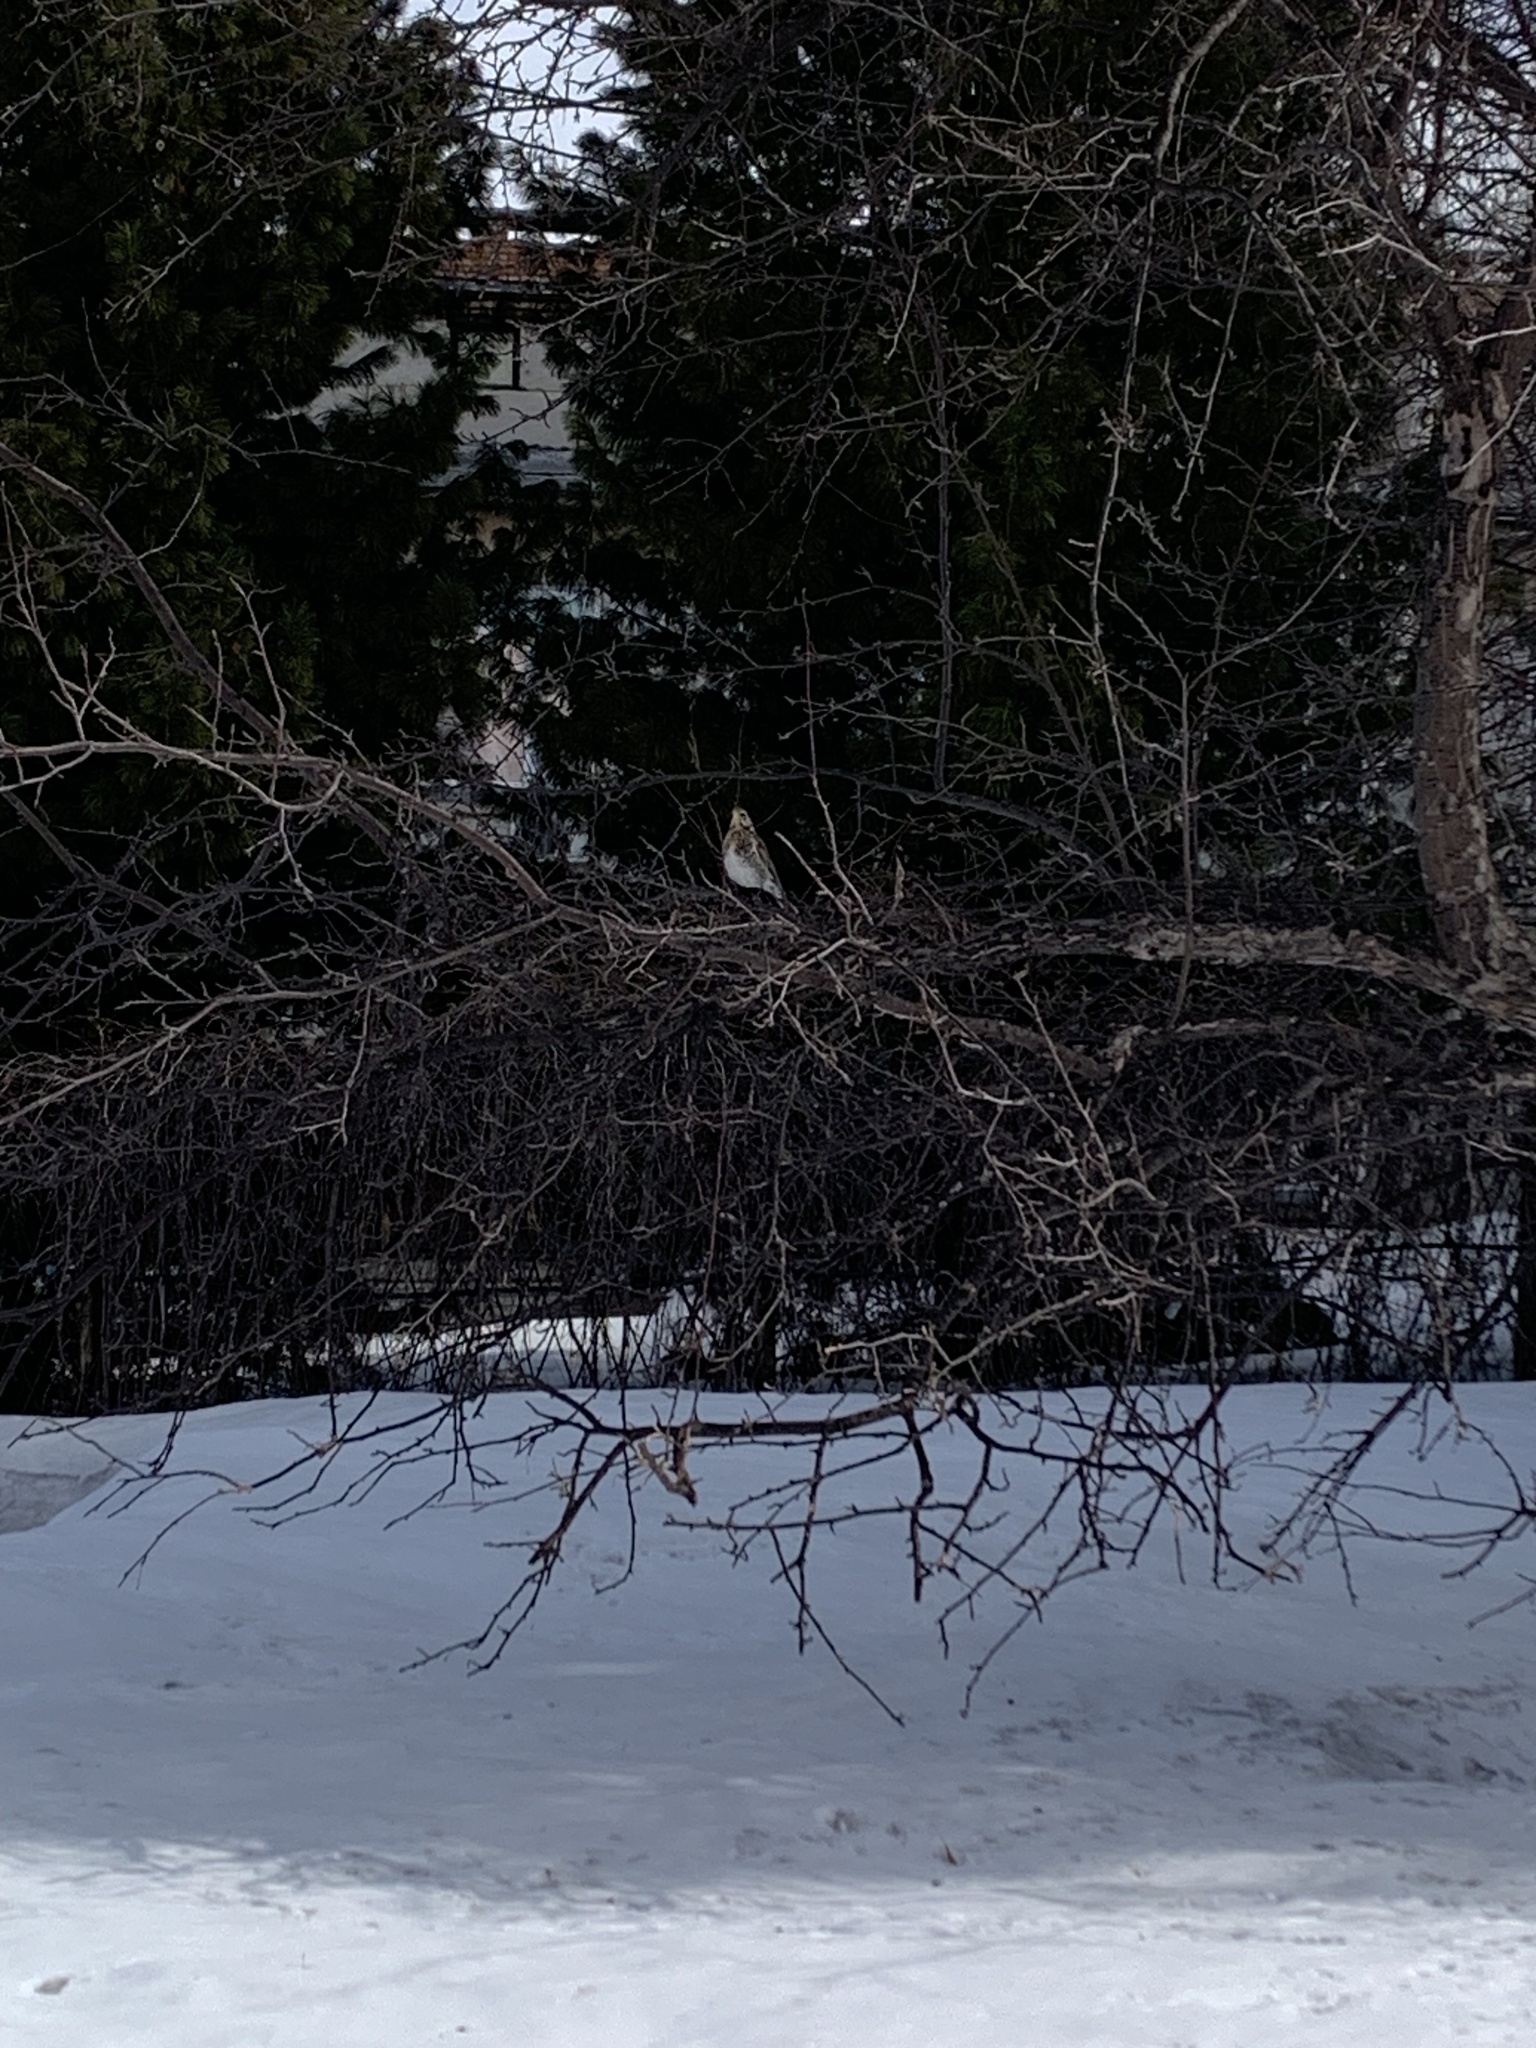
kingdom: Animalia
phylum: Chordata
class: Aves
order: Passeriformes
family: Turdidae
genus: Turdus
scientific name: Turdus pilaris
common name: Fieldfare
